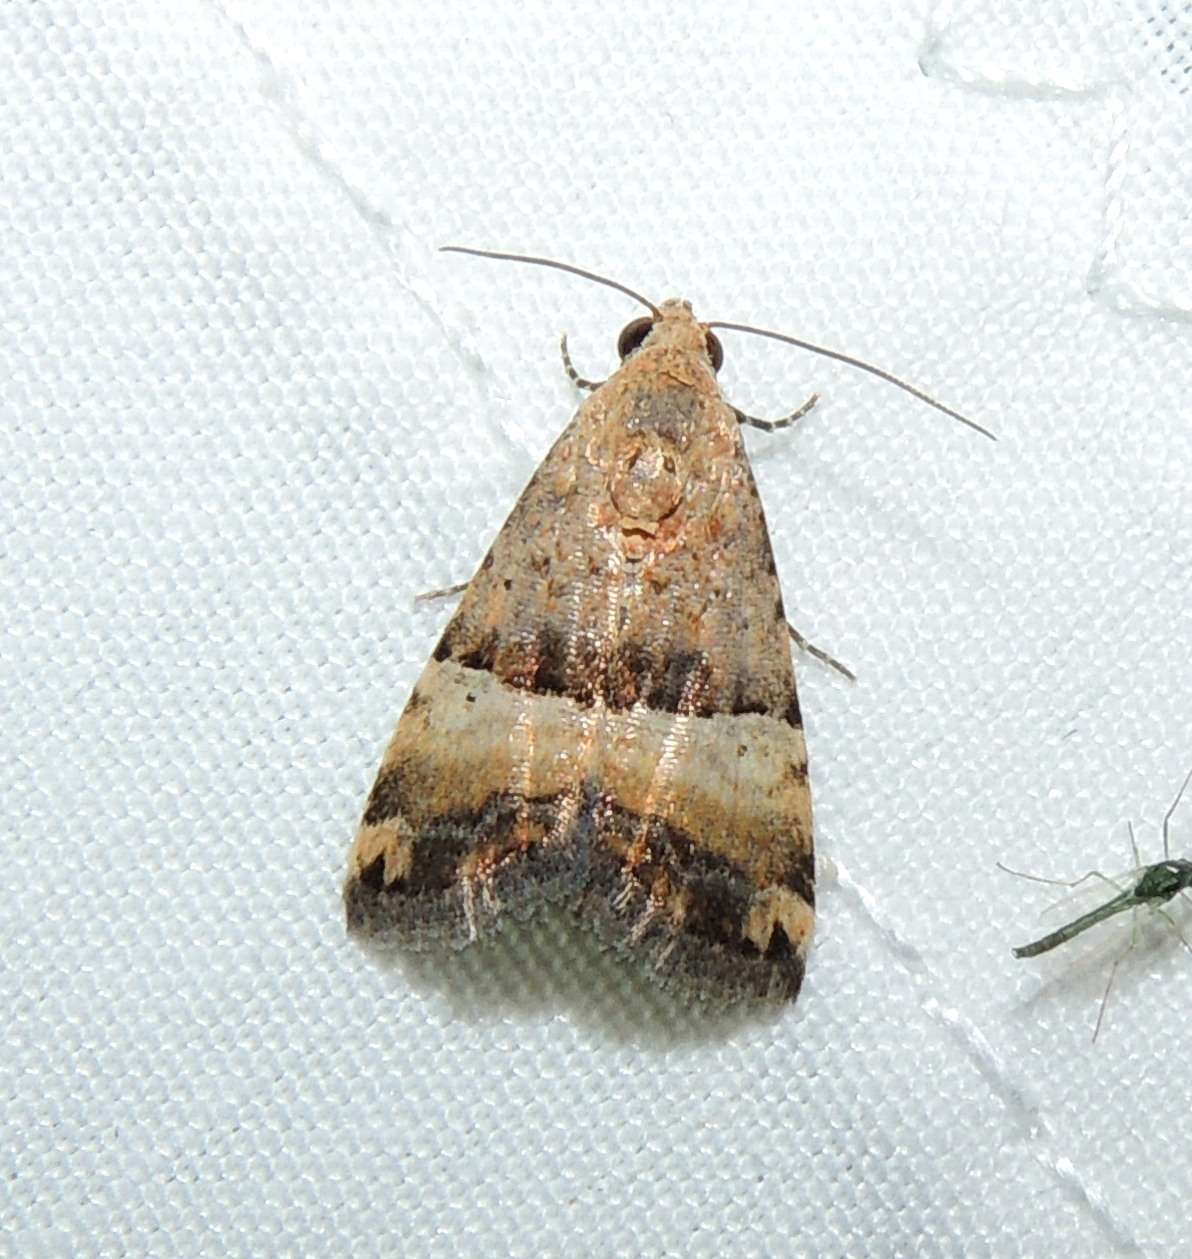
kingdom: Animalia
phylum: Arthropoda
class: Insecta
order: Lepidoptera
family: Noctuidae
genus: Pseudozarba
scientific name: Pseudozarba orthopetes
